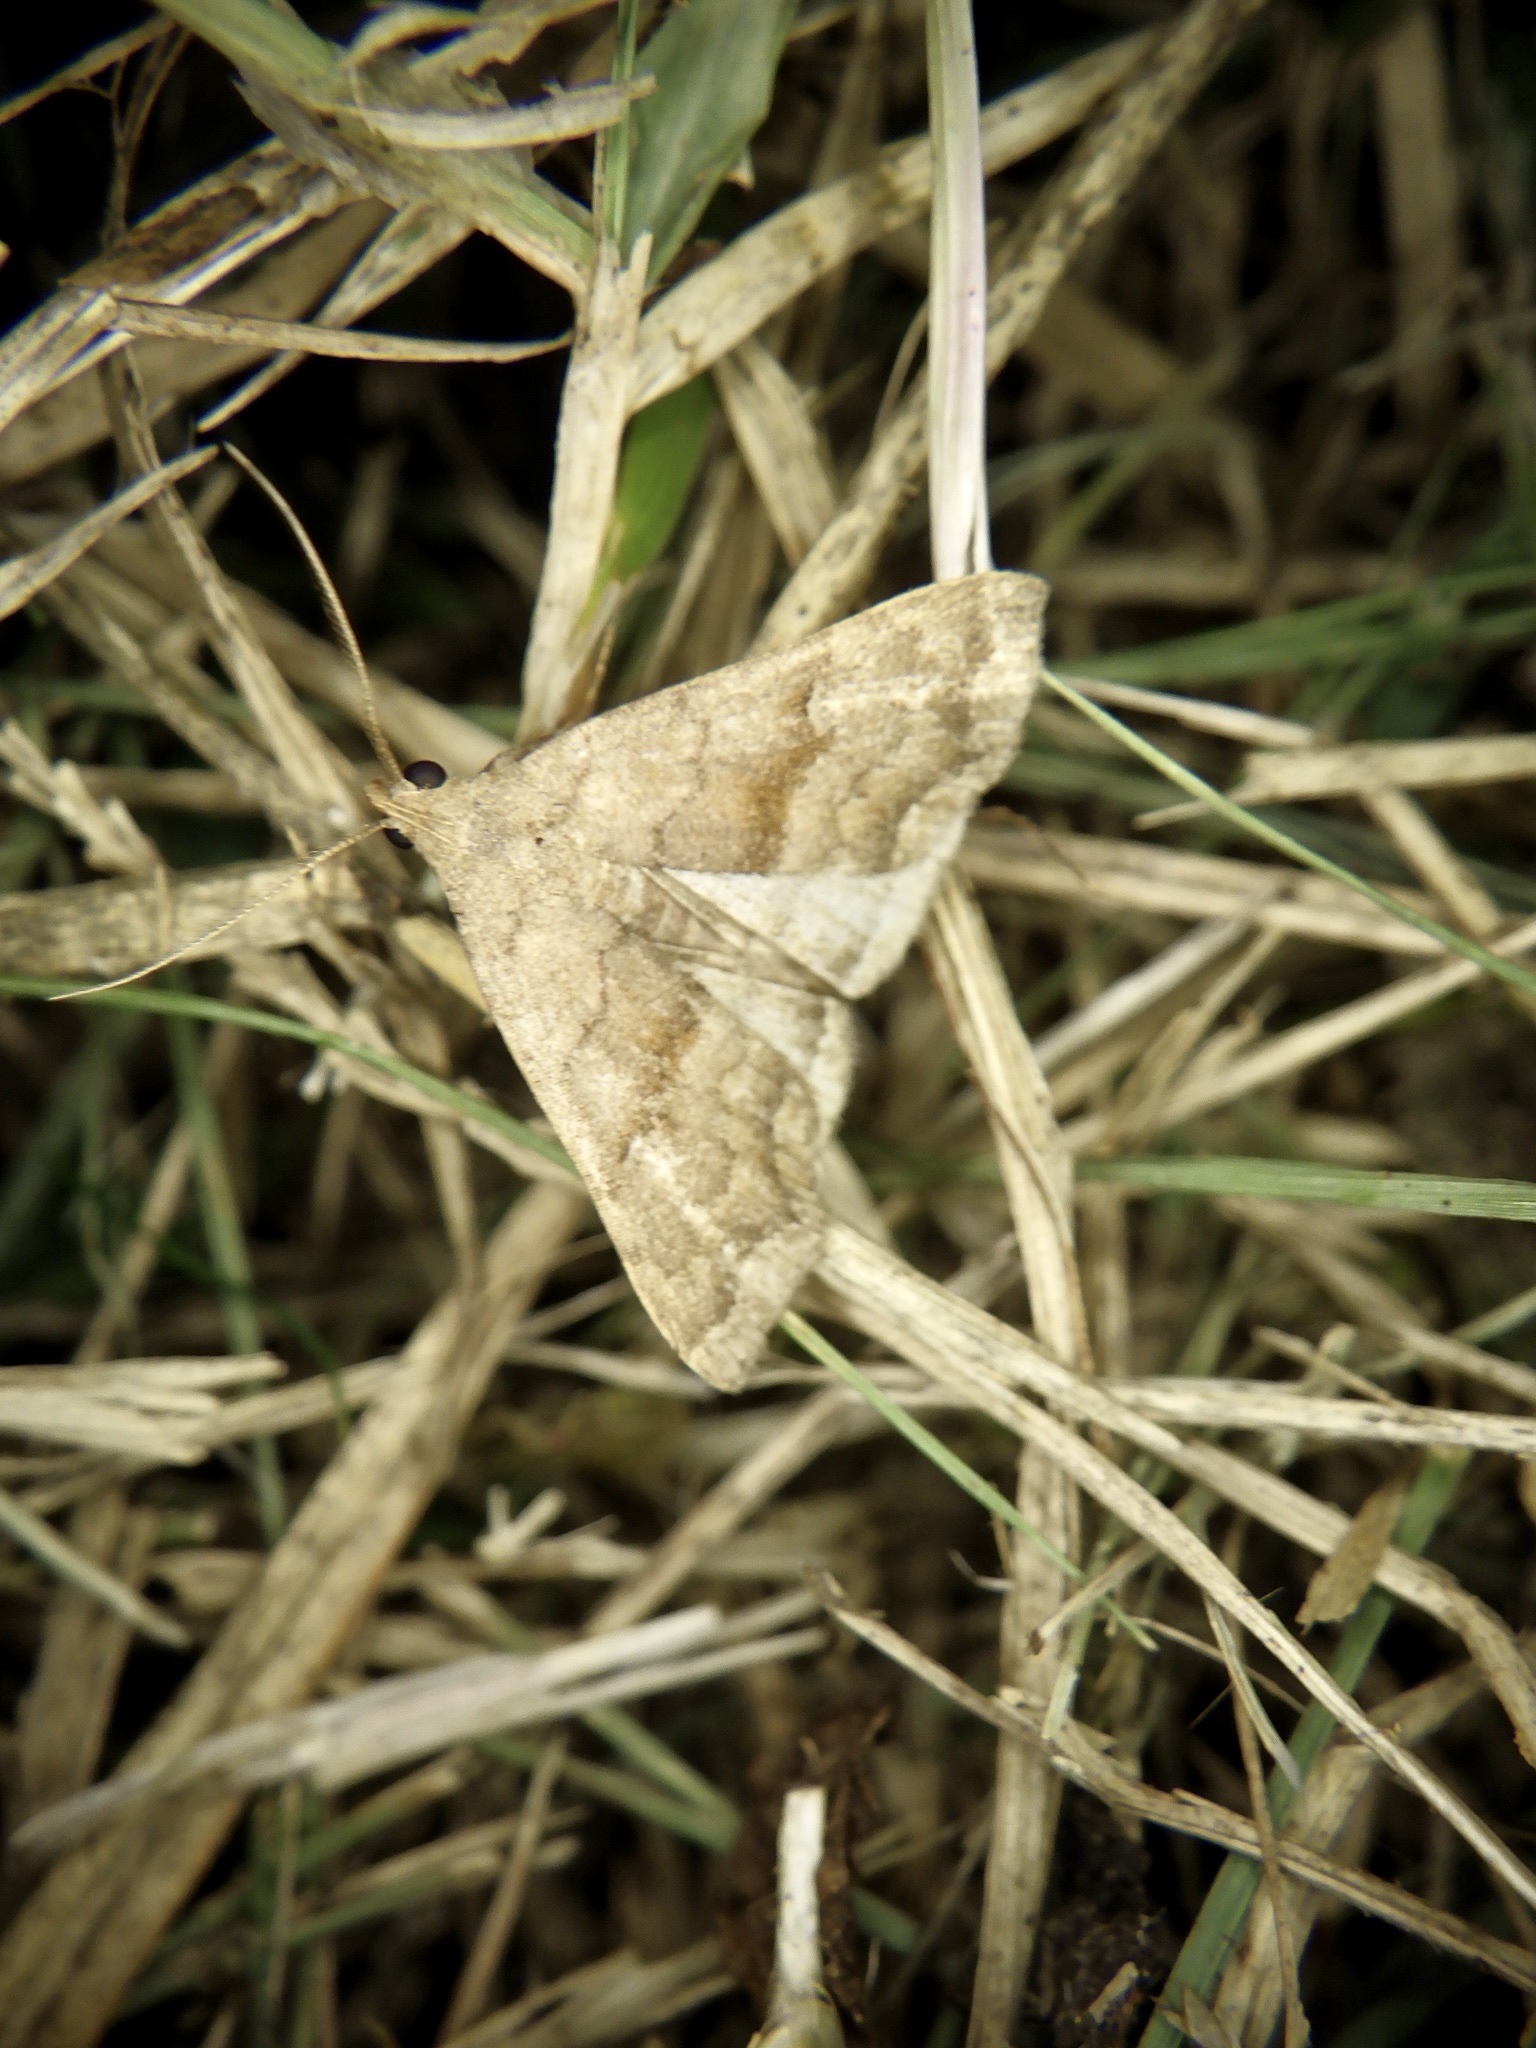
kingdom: Animalia
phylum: Arthropoda
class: Insecta
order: Lepidoptera
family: Erebidae
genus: Polypogon
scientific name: Polypogon Hipoepa fractalis
